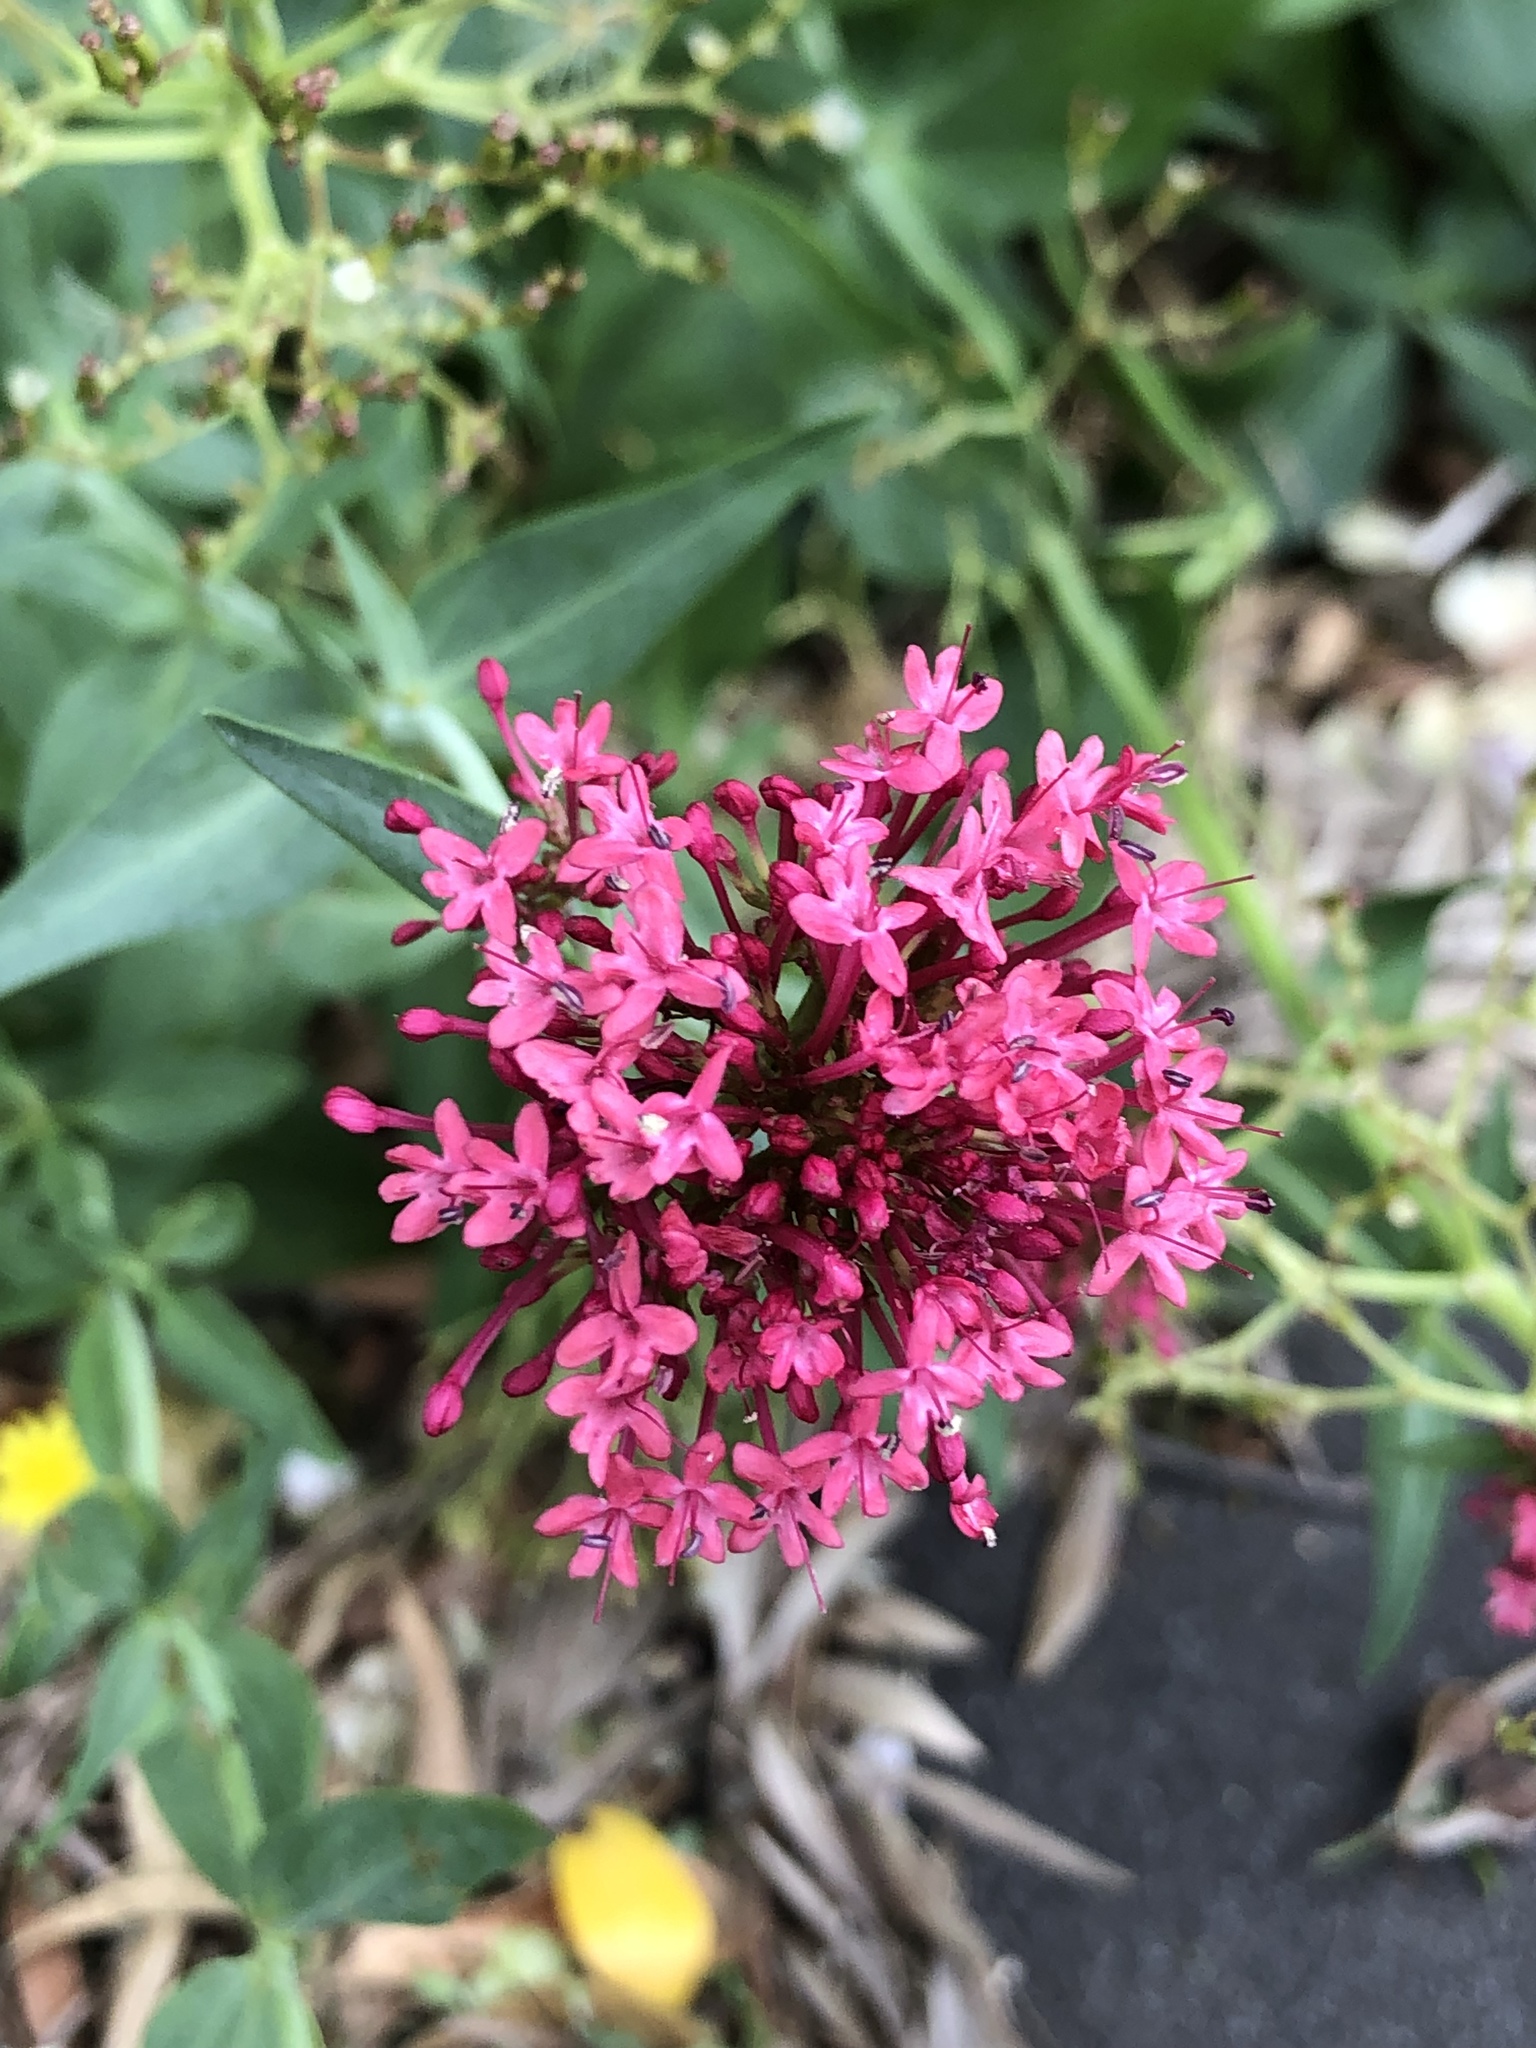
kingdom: Plantae
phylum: Tracheophyta
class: Magnoliopsida
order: Dipsacales
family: Caprifoliaceae
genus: Centranthus
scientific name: Centranthus ruber
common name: Red valerian
